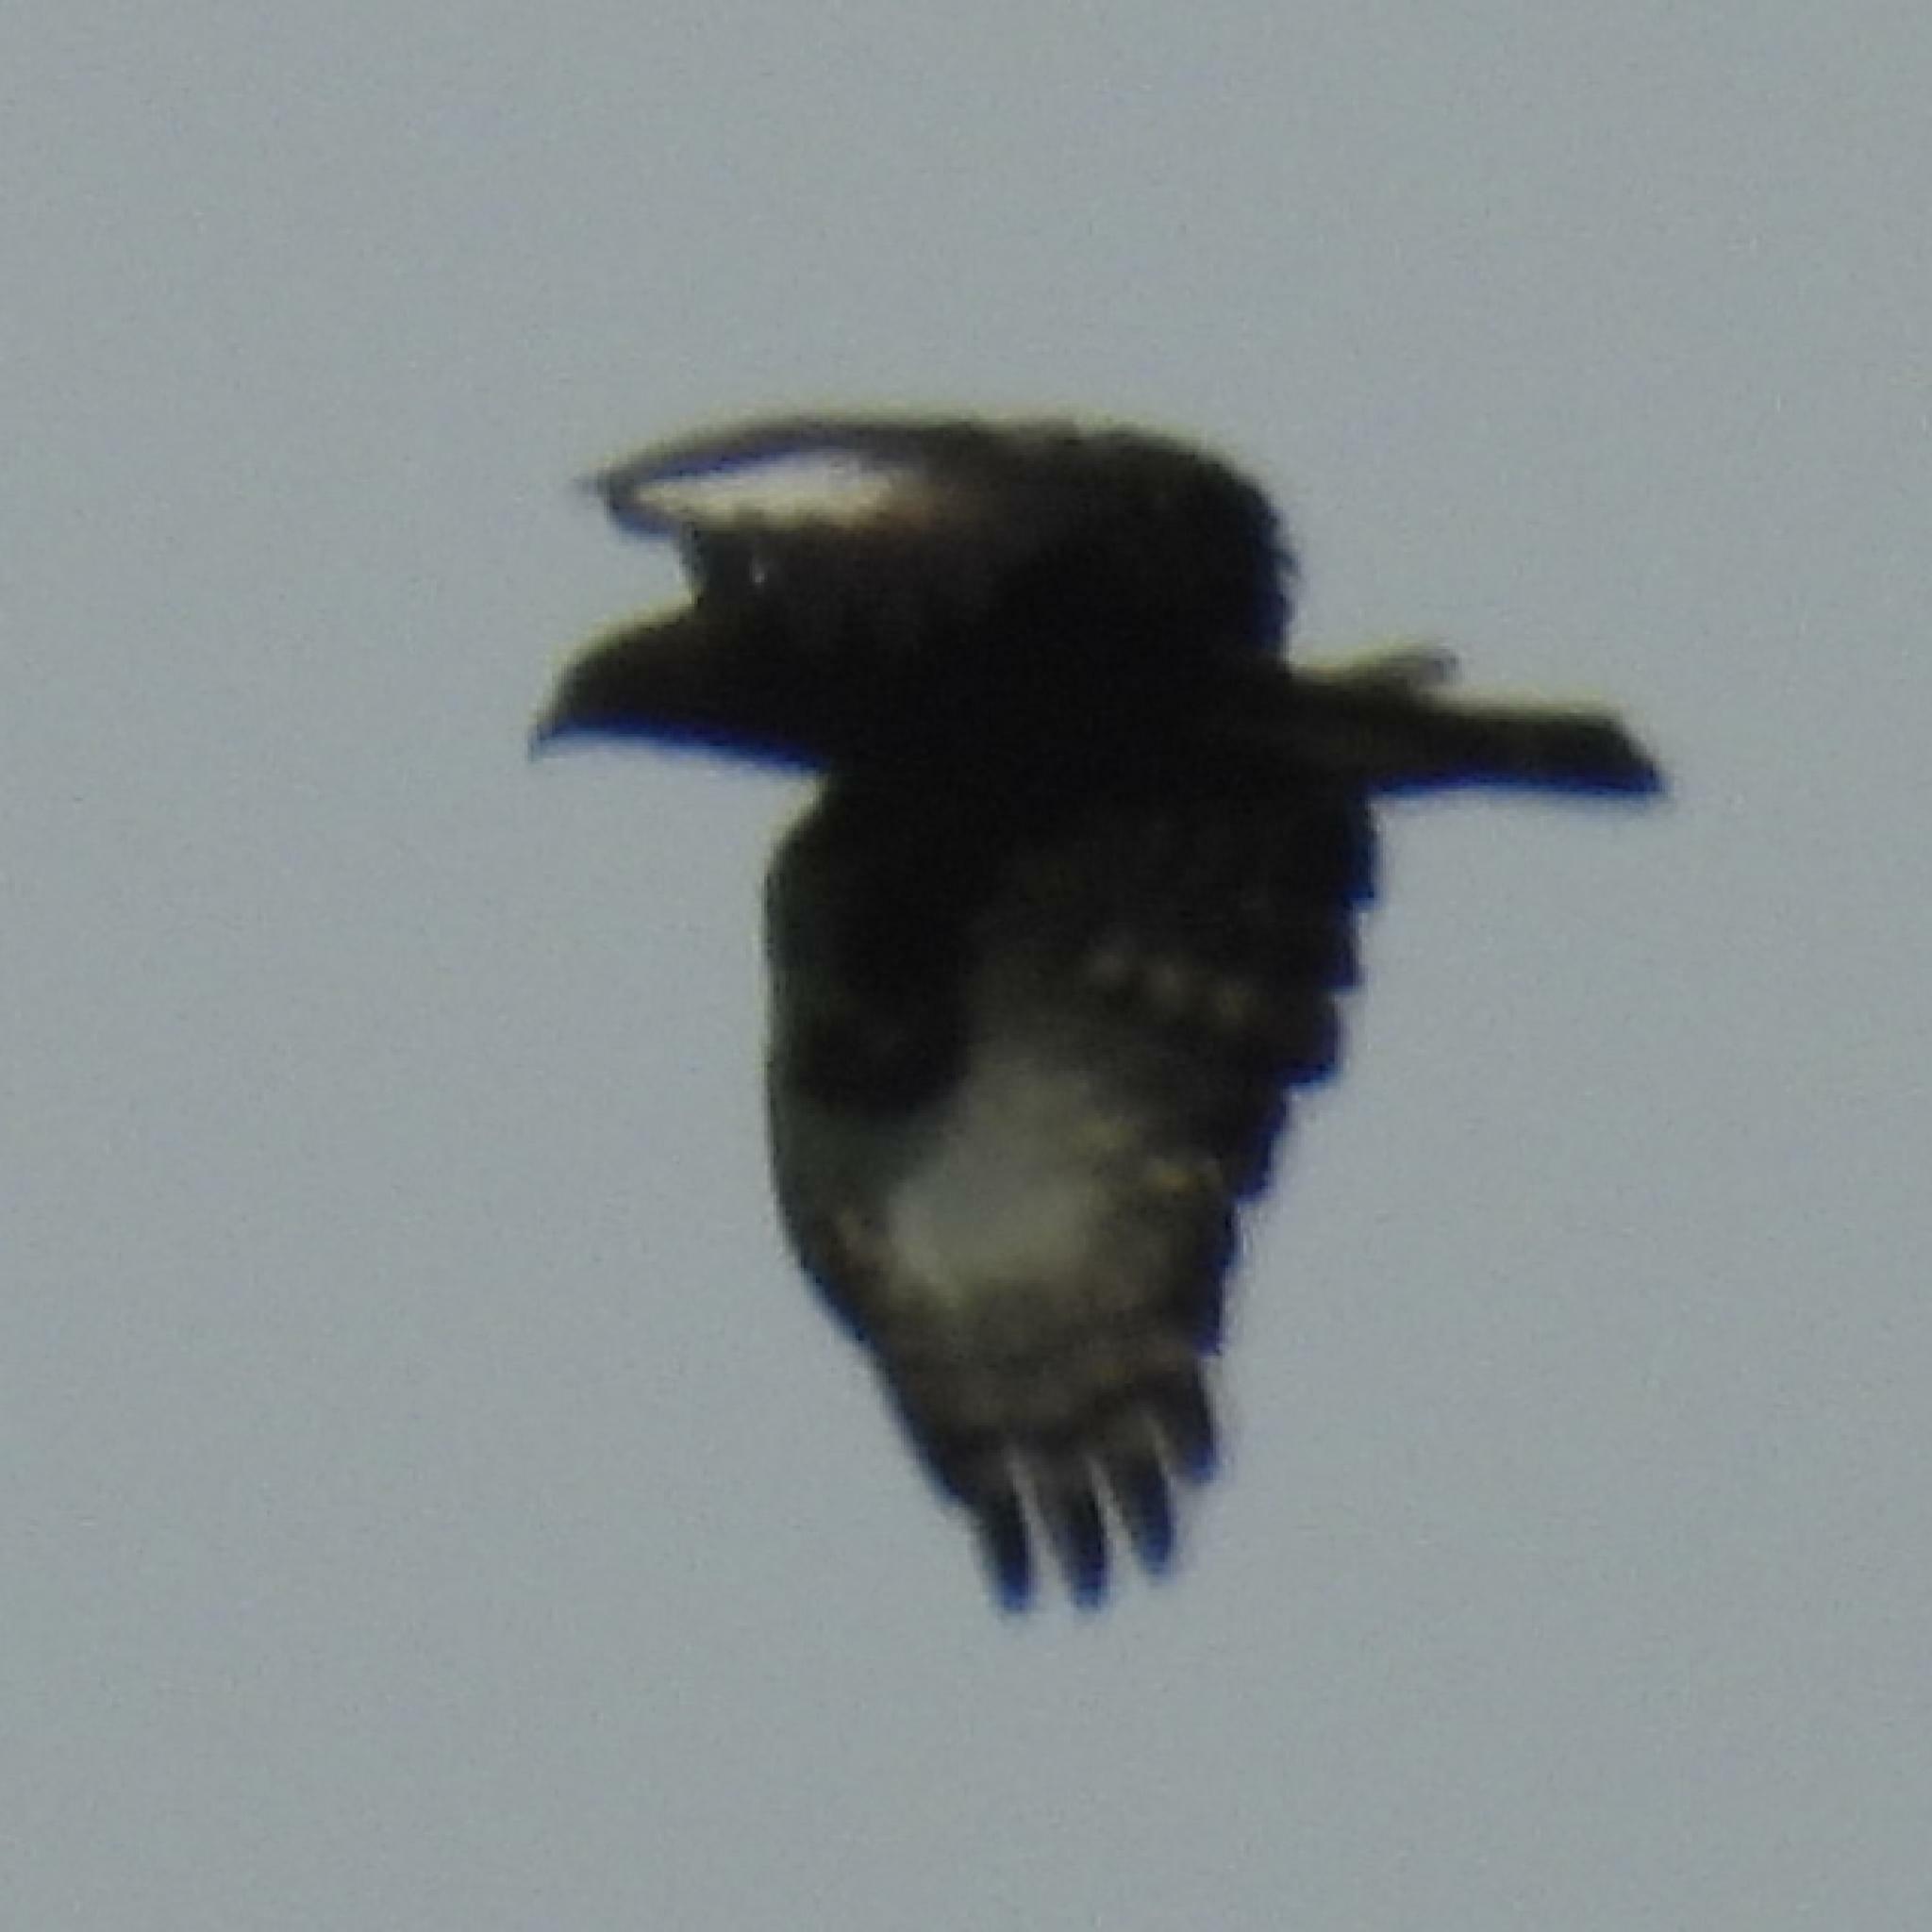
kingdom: Animalia
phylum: Chordata
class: Aves
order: Accipitriformes
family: Accipitridae
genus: Lophaetus
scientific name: Lophaetus occipitalis
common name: Long-crested eagle
